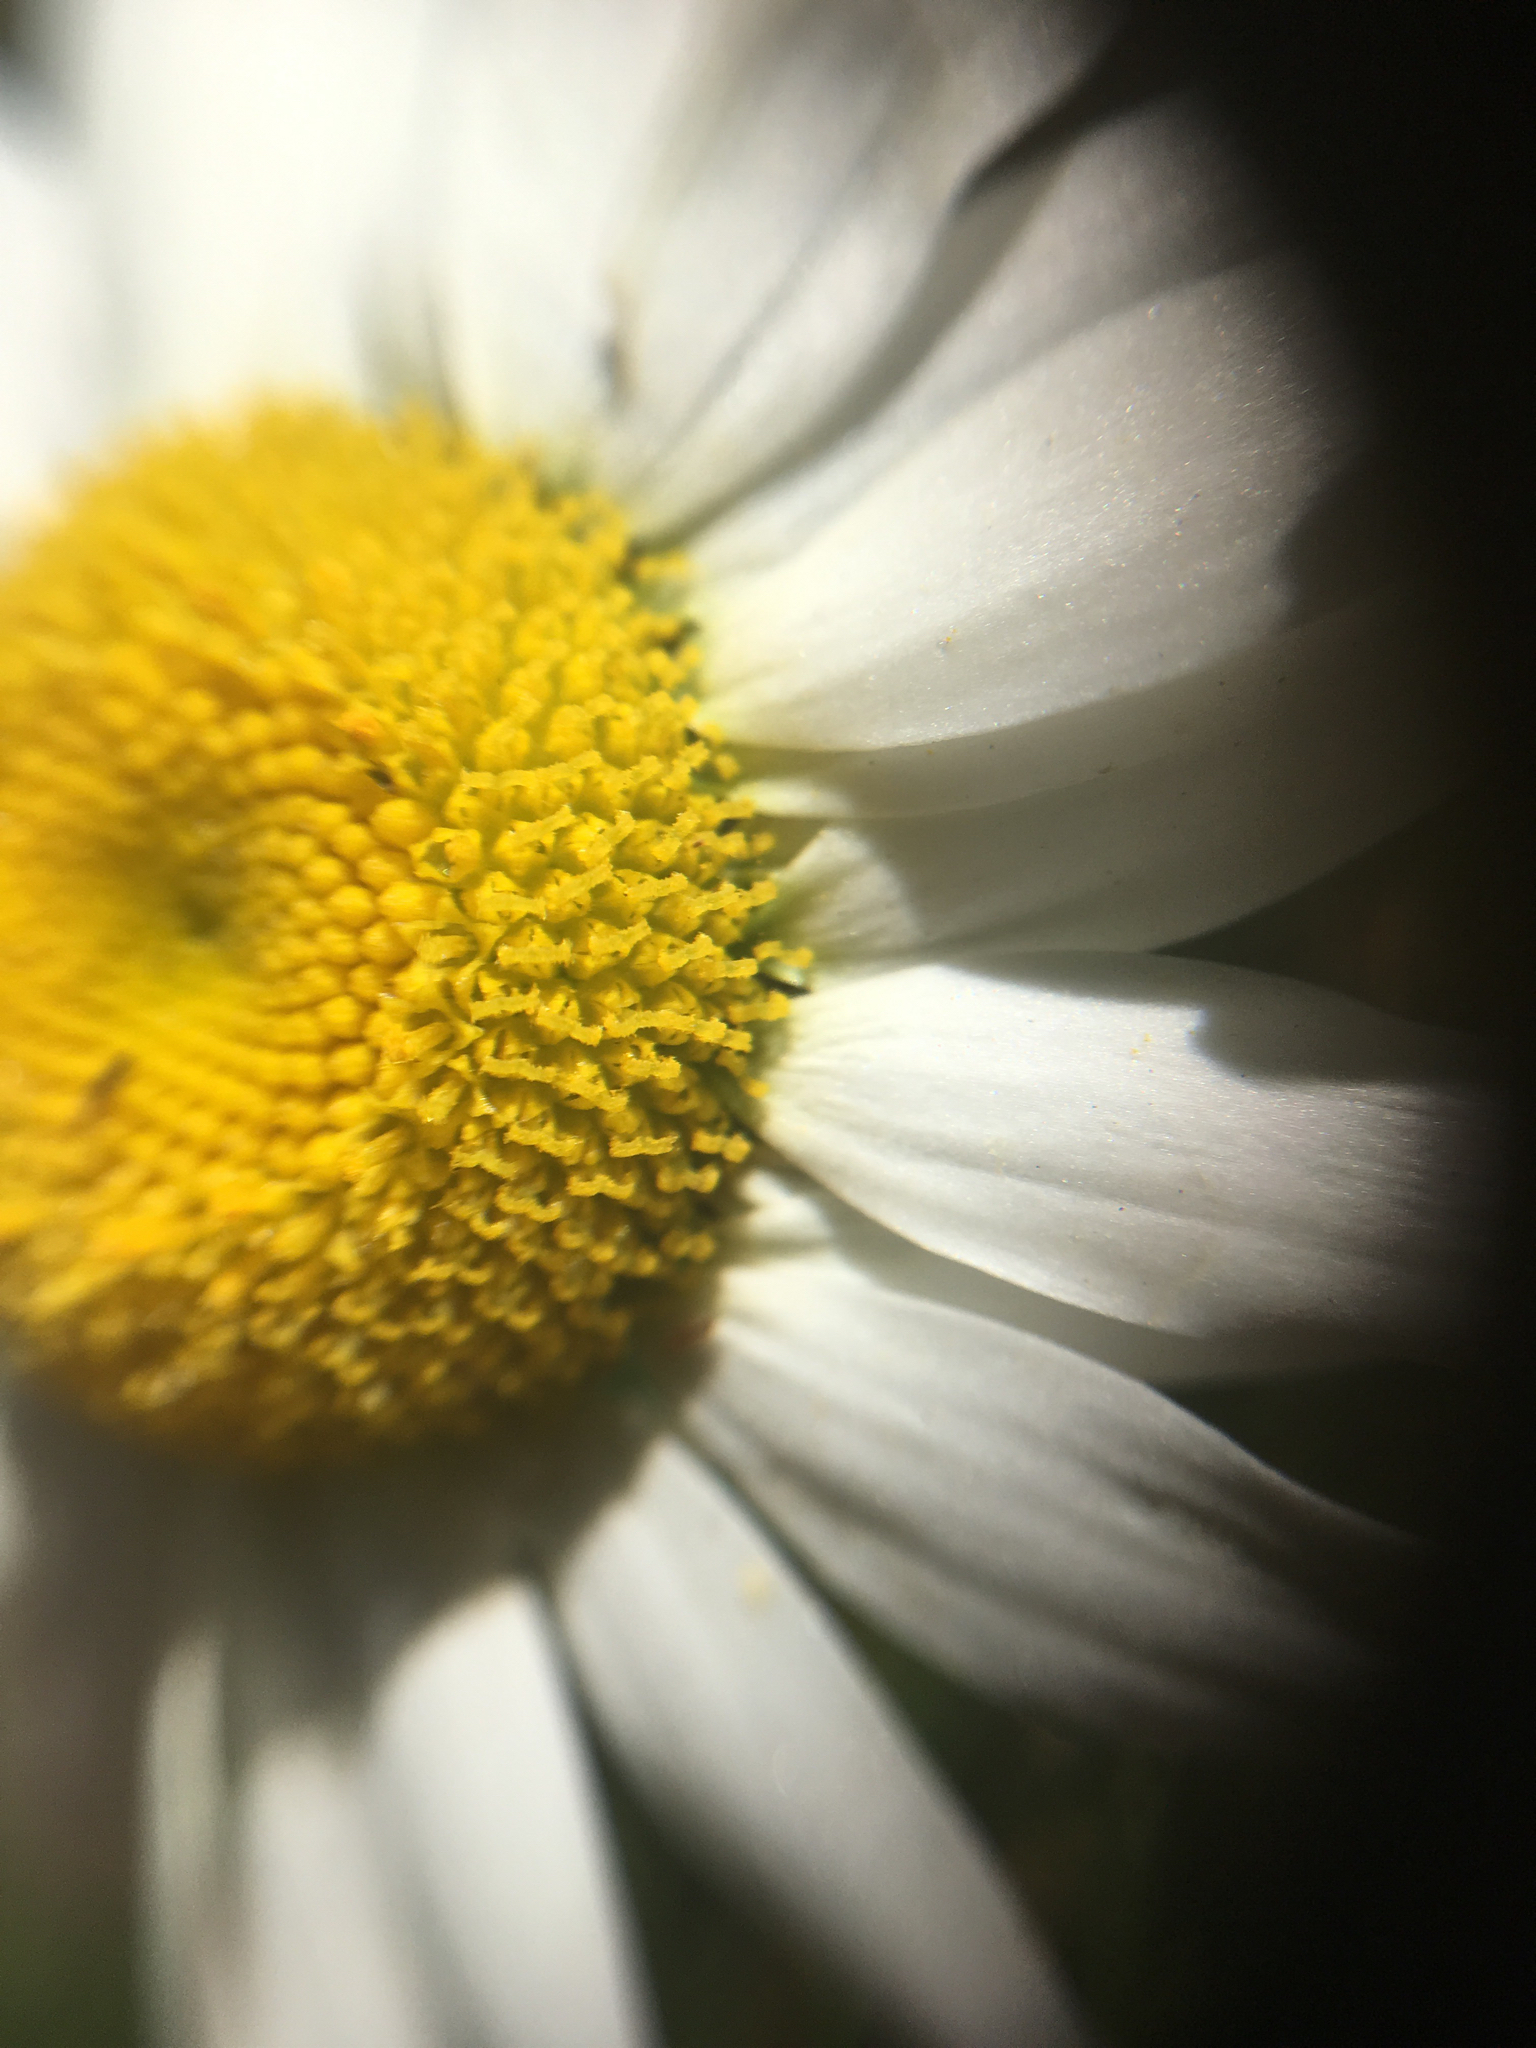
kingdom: Plantae
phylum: Tracheophyta
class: Magnoliopsida
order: Asterales
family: Asteraceae
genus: Leucanthemum
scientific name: Leucanthemum vulgare
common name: Oxeye daisy
